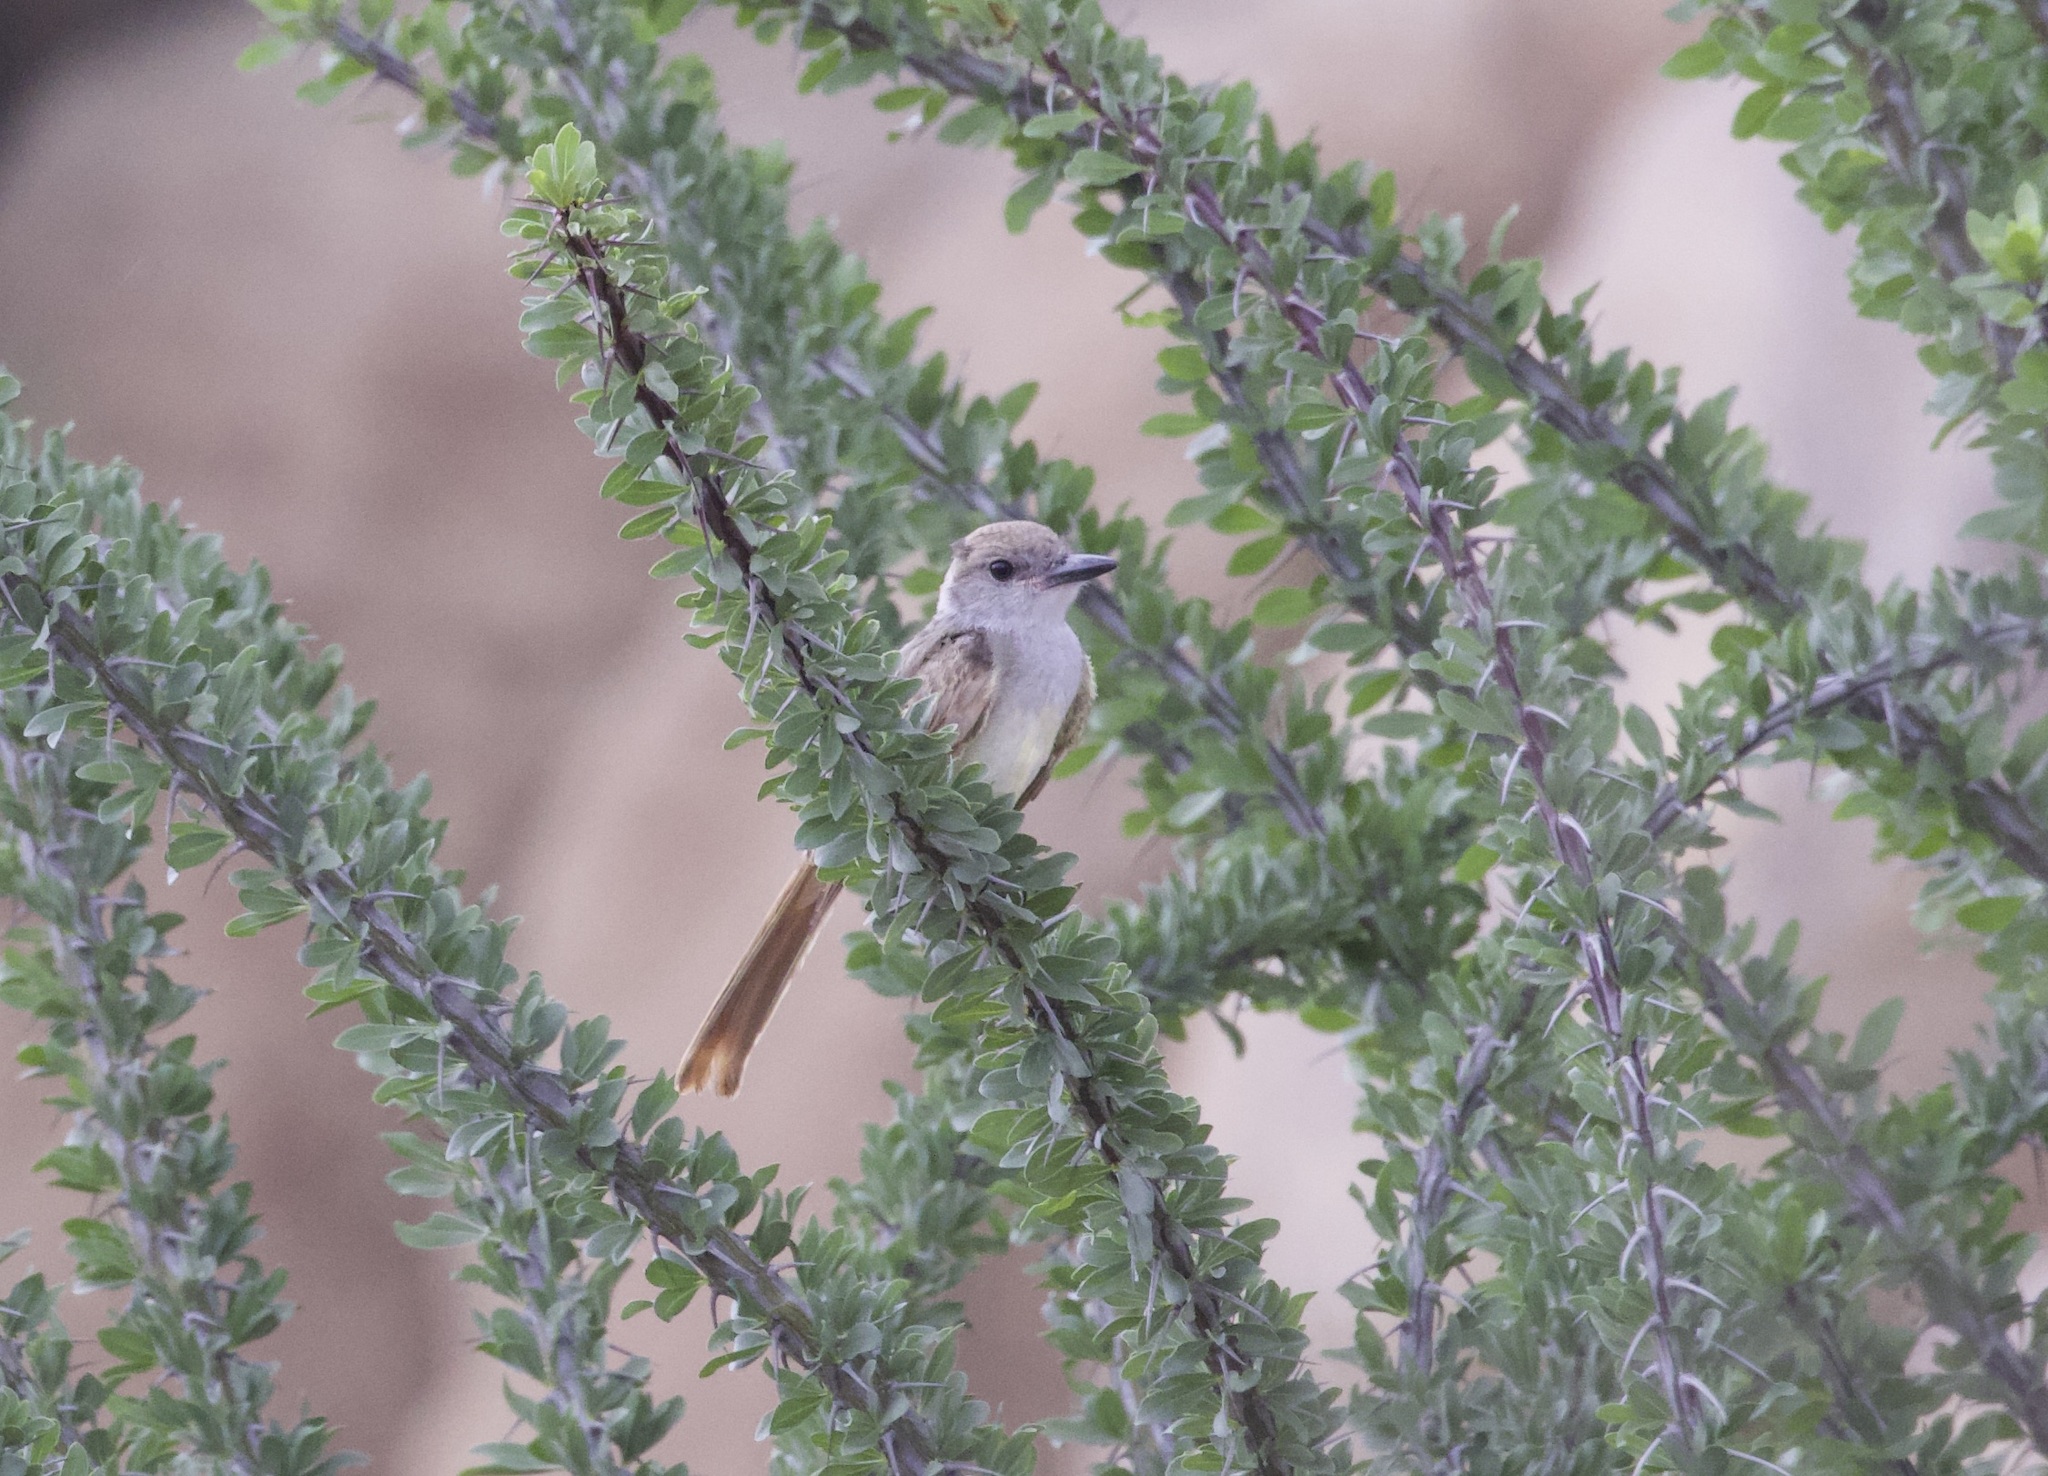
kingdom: Animalia
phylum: Chordata
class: Aves
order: Passeriformes
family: Tyrannidae
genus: Myiarchus
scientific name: Myiarchus cinerascens
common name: Ash-throated flycatcher
